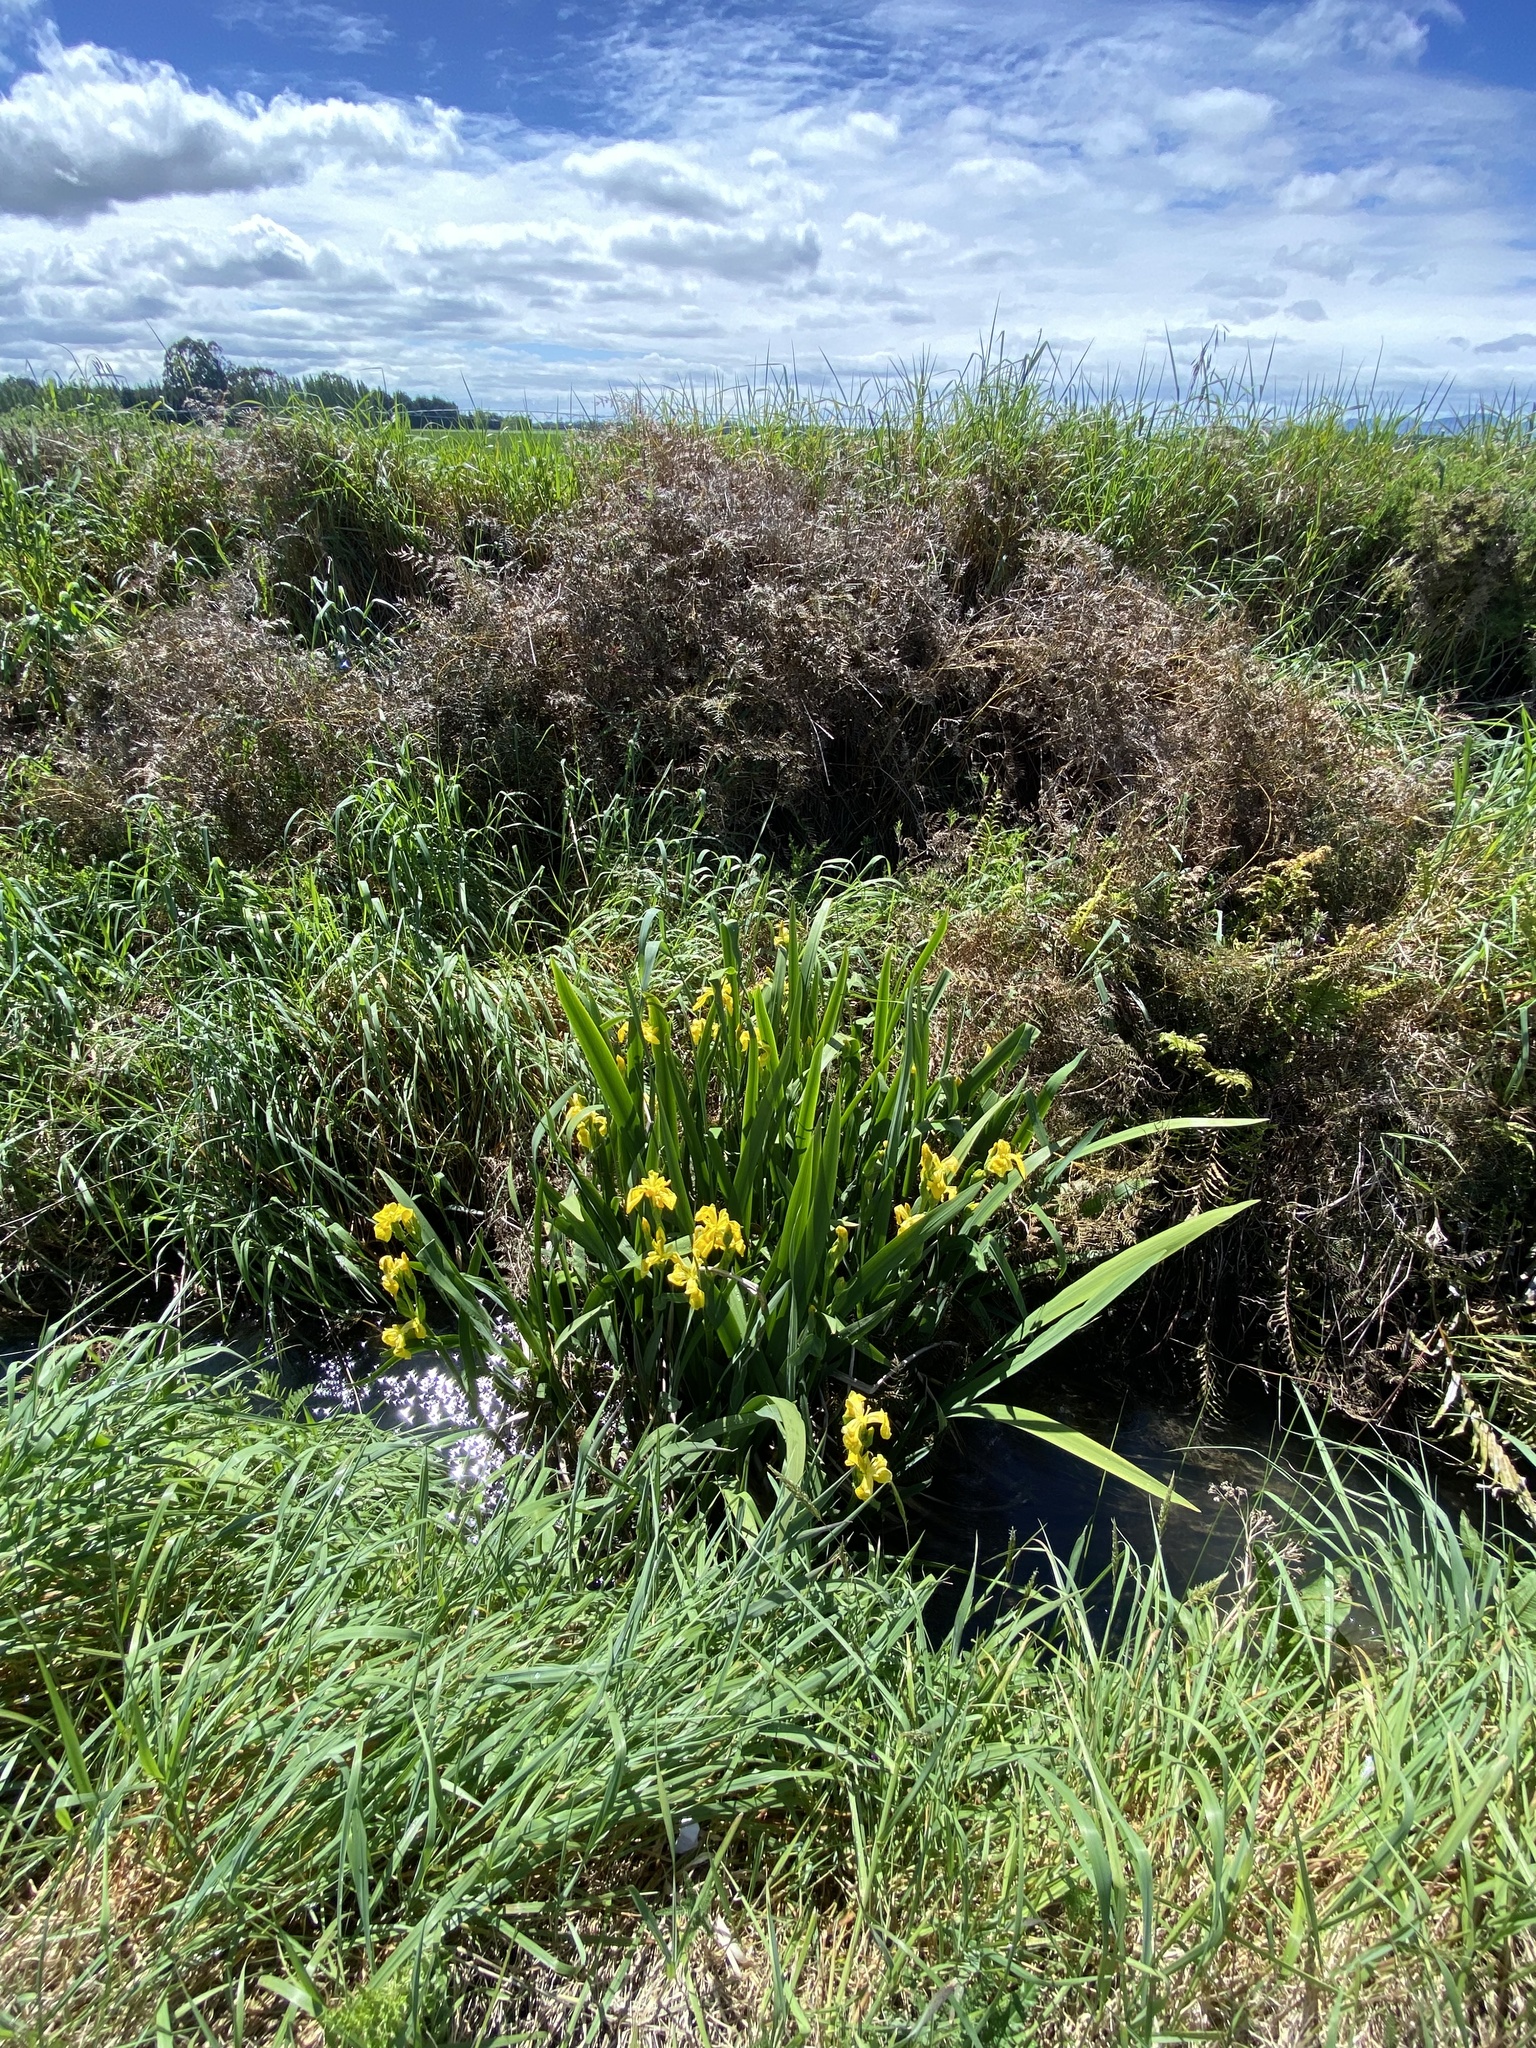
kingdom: Plantae
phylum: Tracheophyta
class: Liliopsida
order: Asparagales
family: Iridaceae
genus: Iris
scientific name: Iris pseudacorus
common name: Yellow flag
